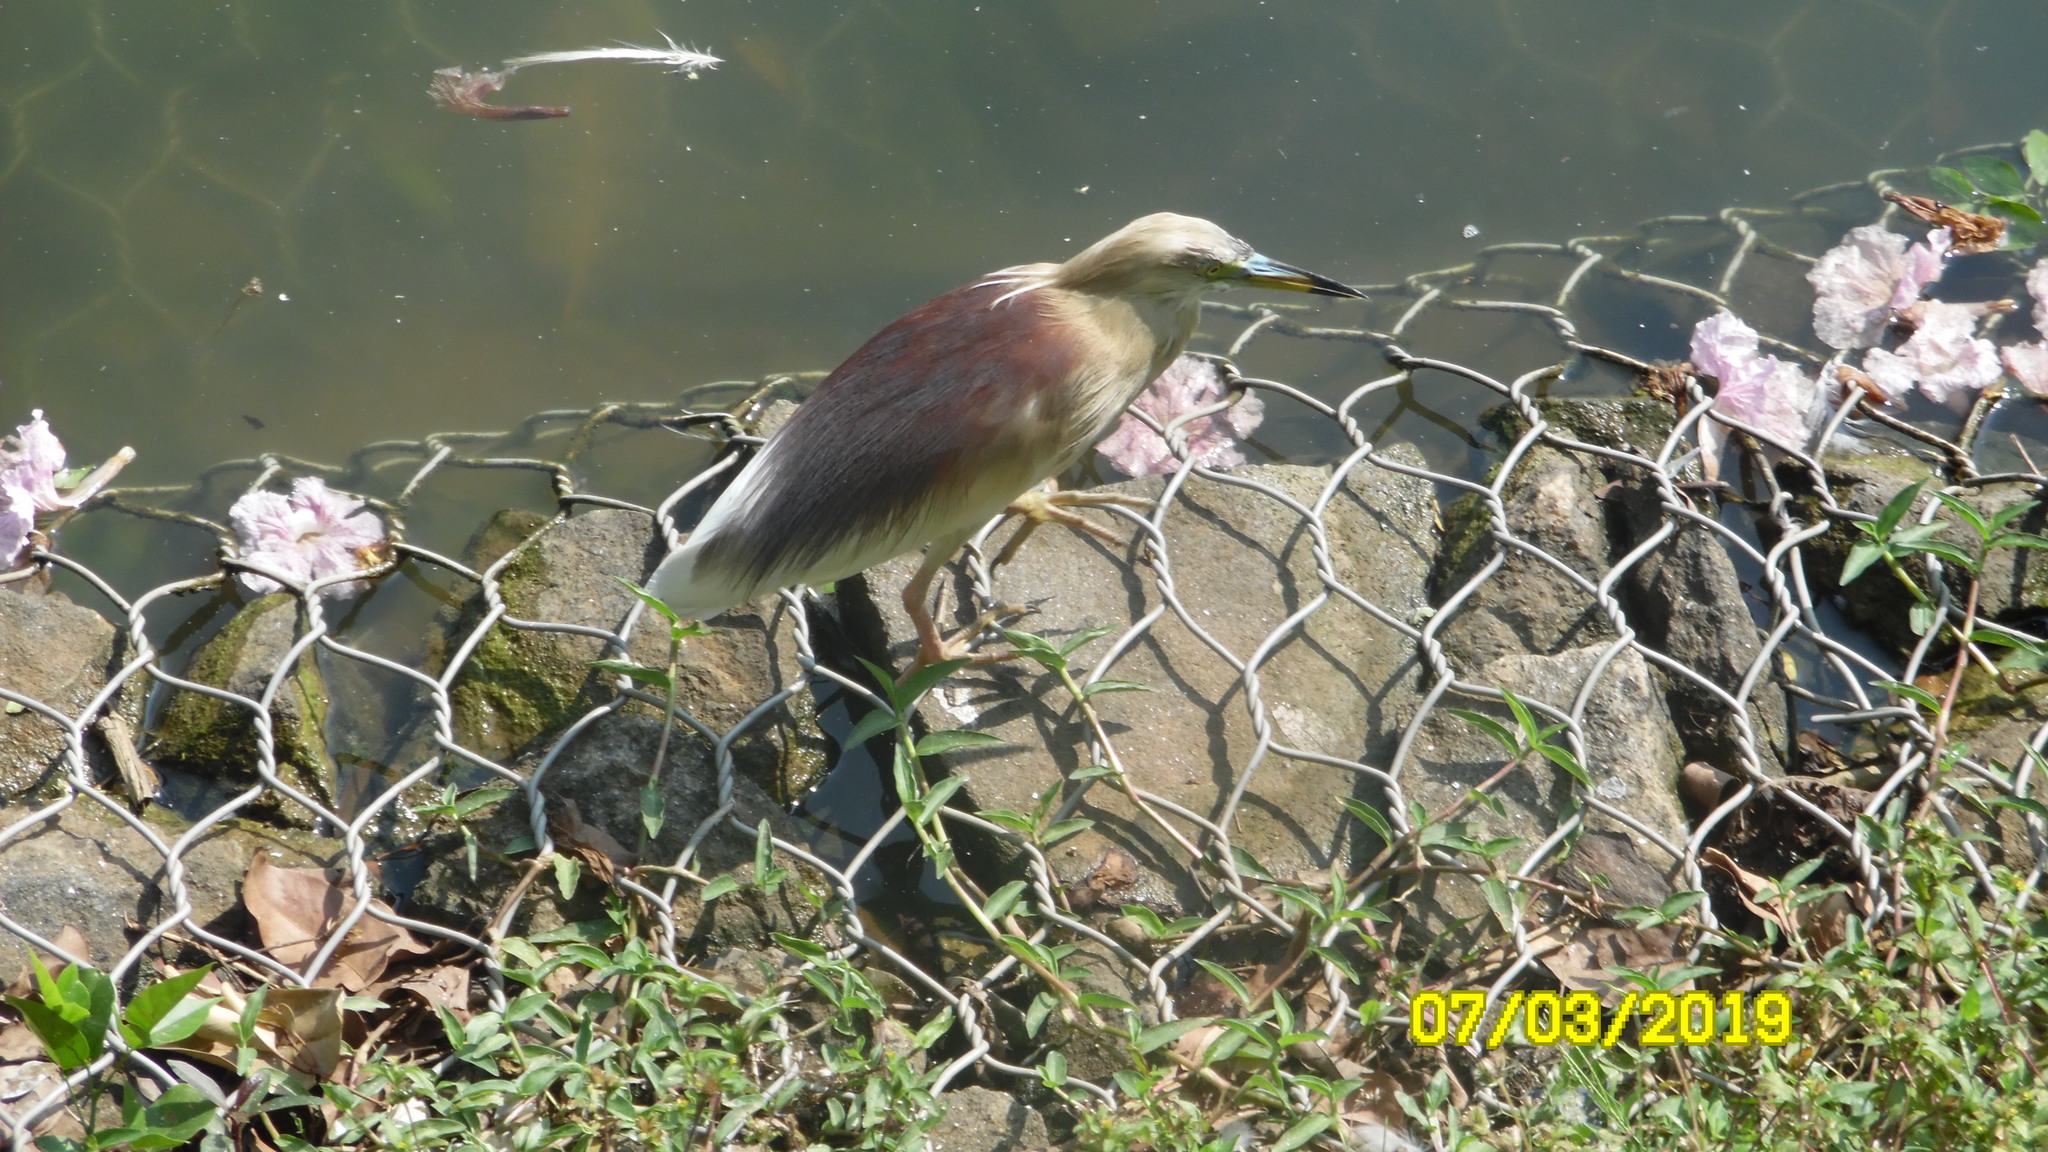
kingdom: Animalia
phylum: Chordata
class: Aves
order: Pelecaniformes
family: Ardeidae
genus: Ardeola
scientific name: Ardeola grayii
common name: Indian pond heron
